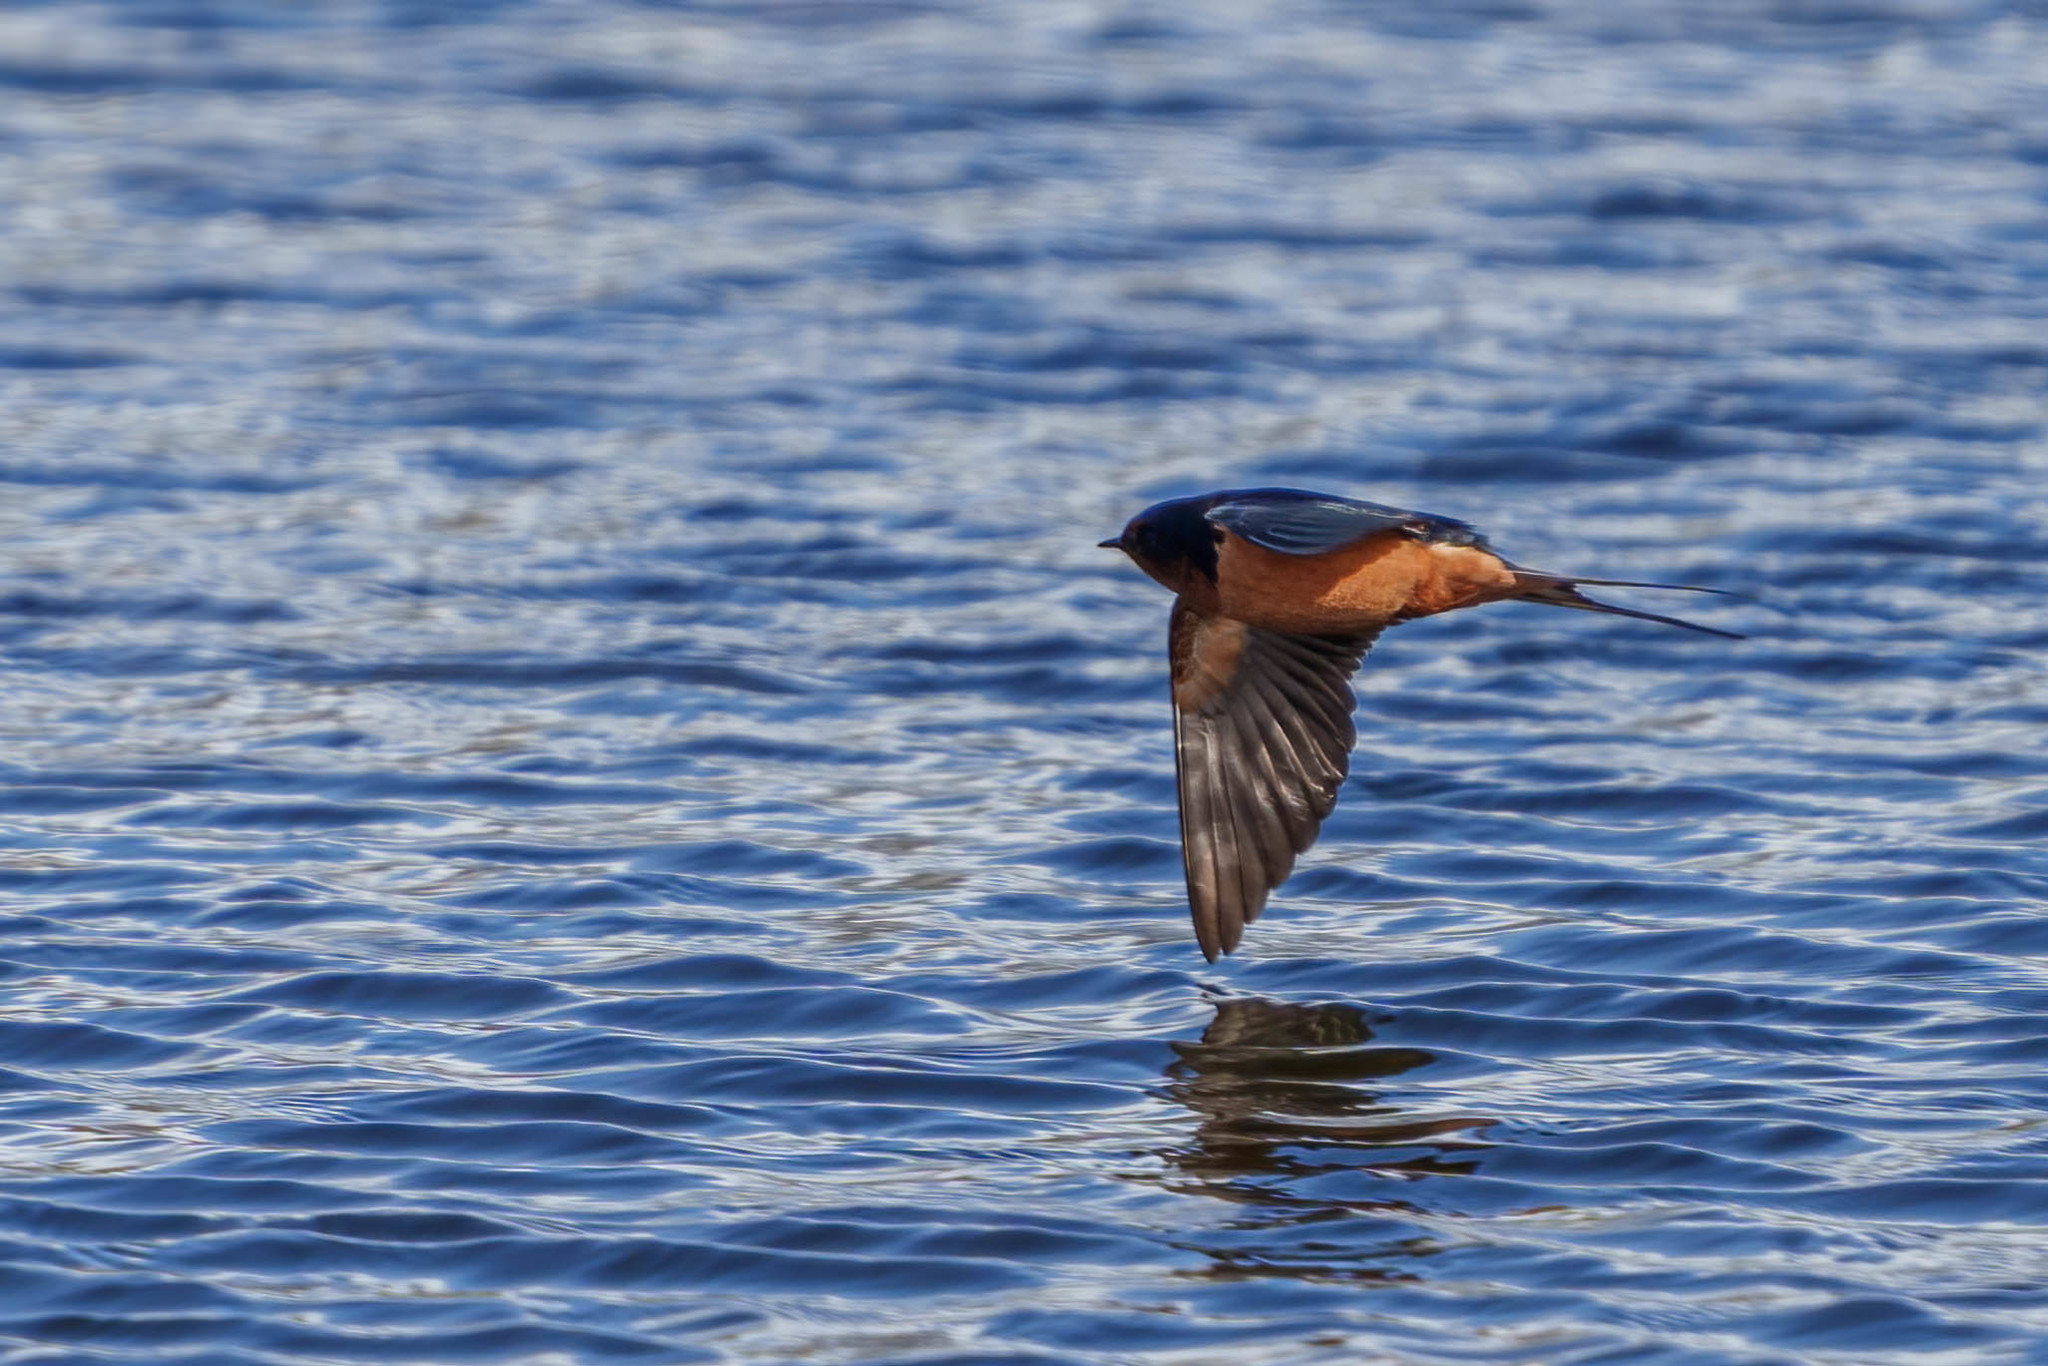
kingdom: Animalia
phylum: Chordata
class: Aves
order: Passeriformes
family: Hirundinidae
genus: Hirundo
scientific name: Hirundo rustica
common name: Barn swallow
